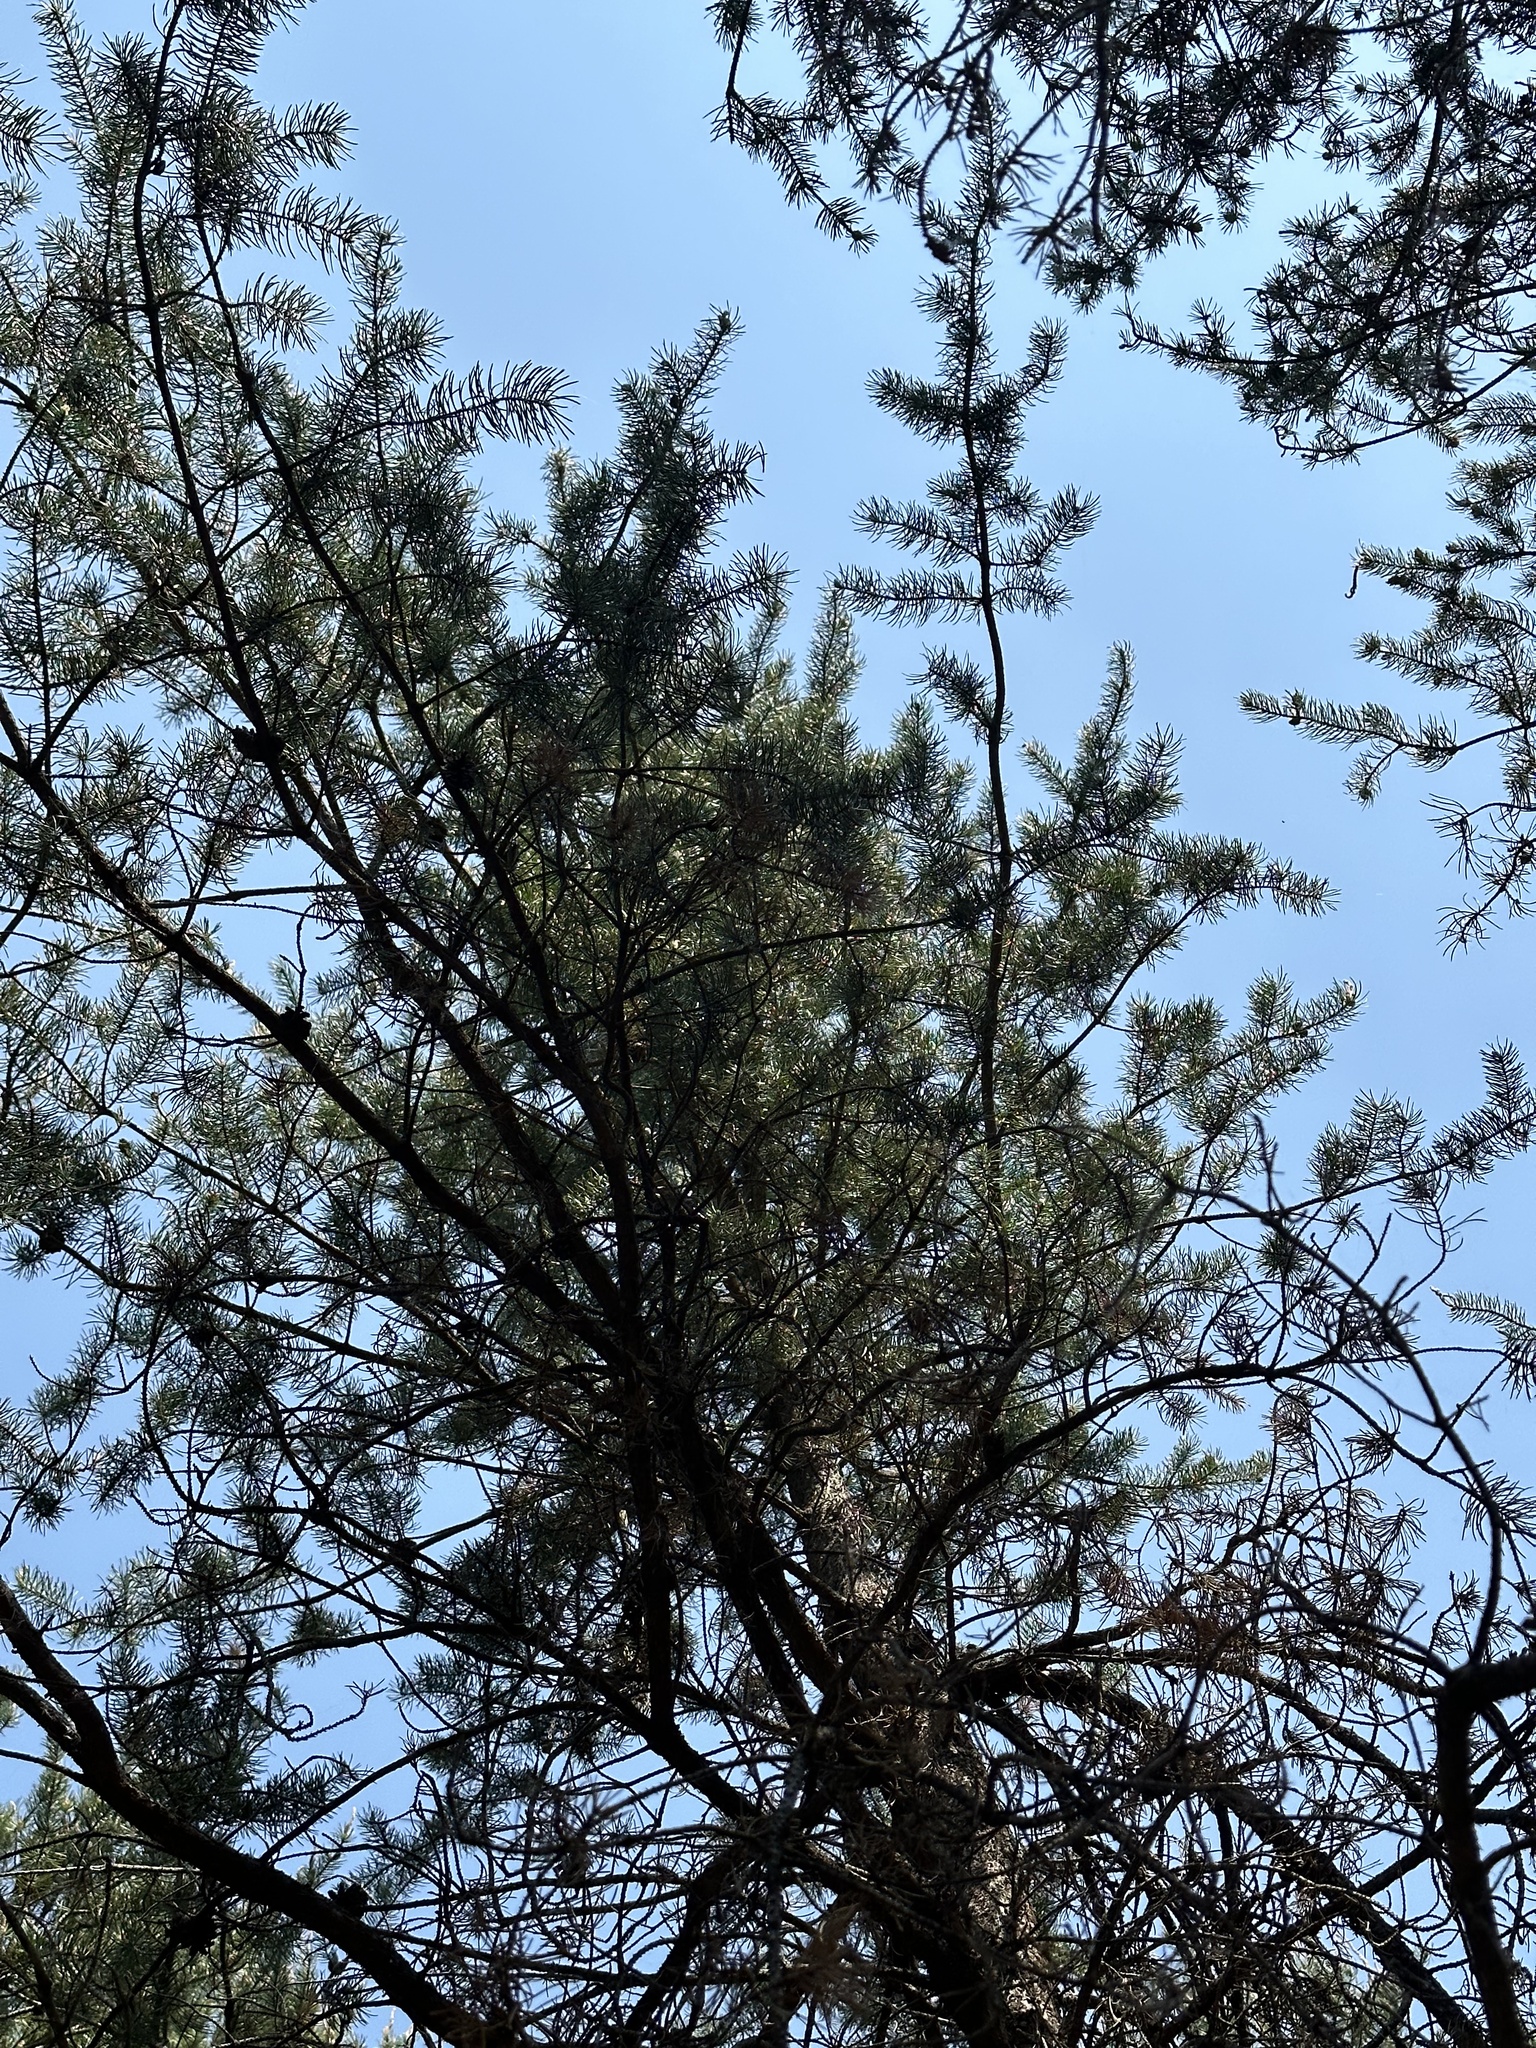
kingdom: Plantae
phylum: Tracheophyta
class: Pinopsida
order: Pinales
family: Pinaceae
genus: Pinus
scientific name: Pinus banksiana
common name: Jack pine
